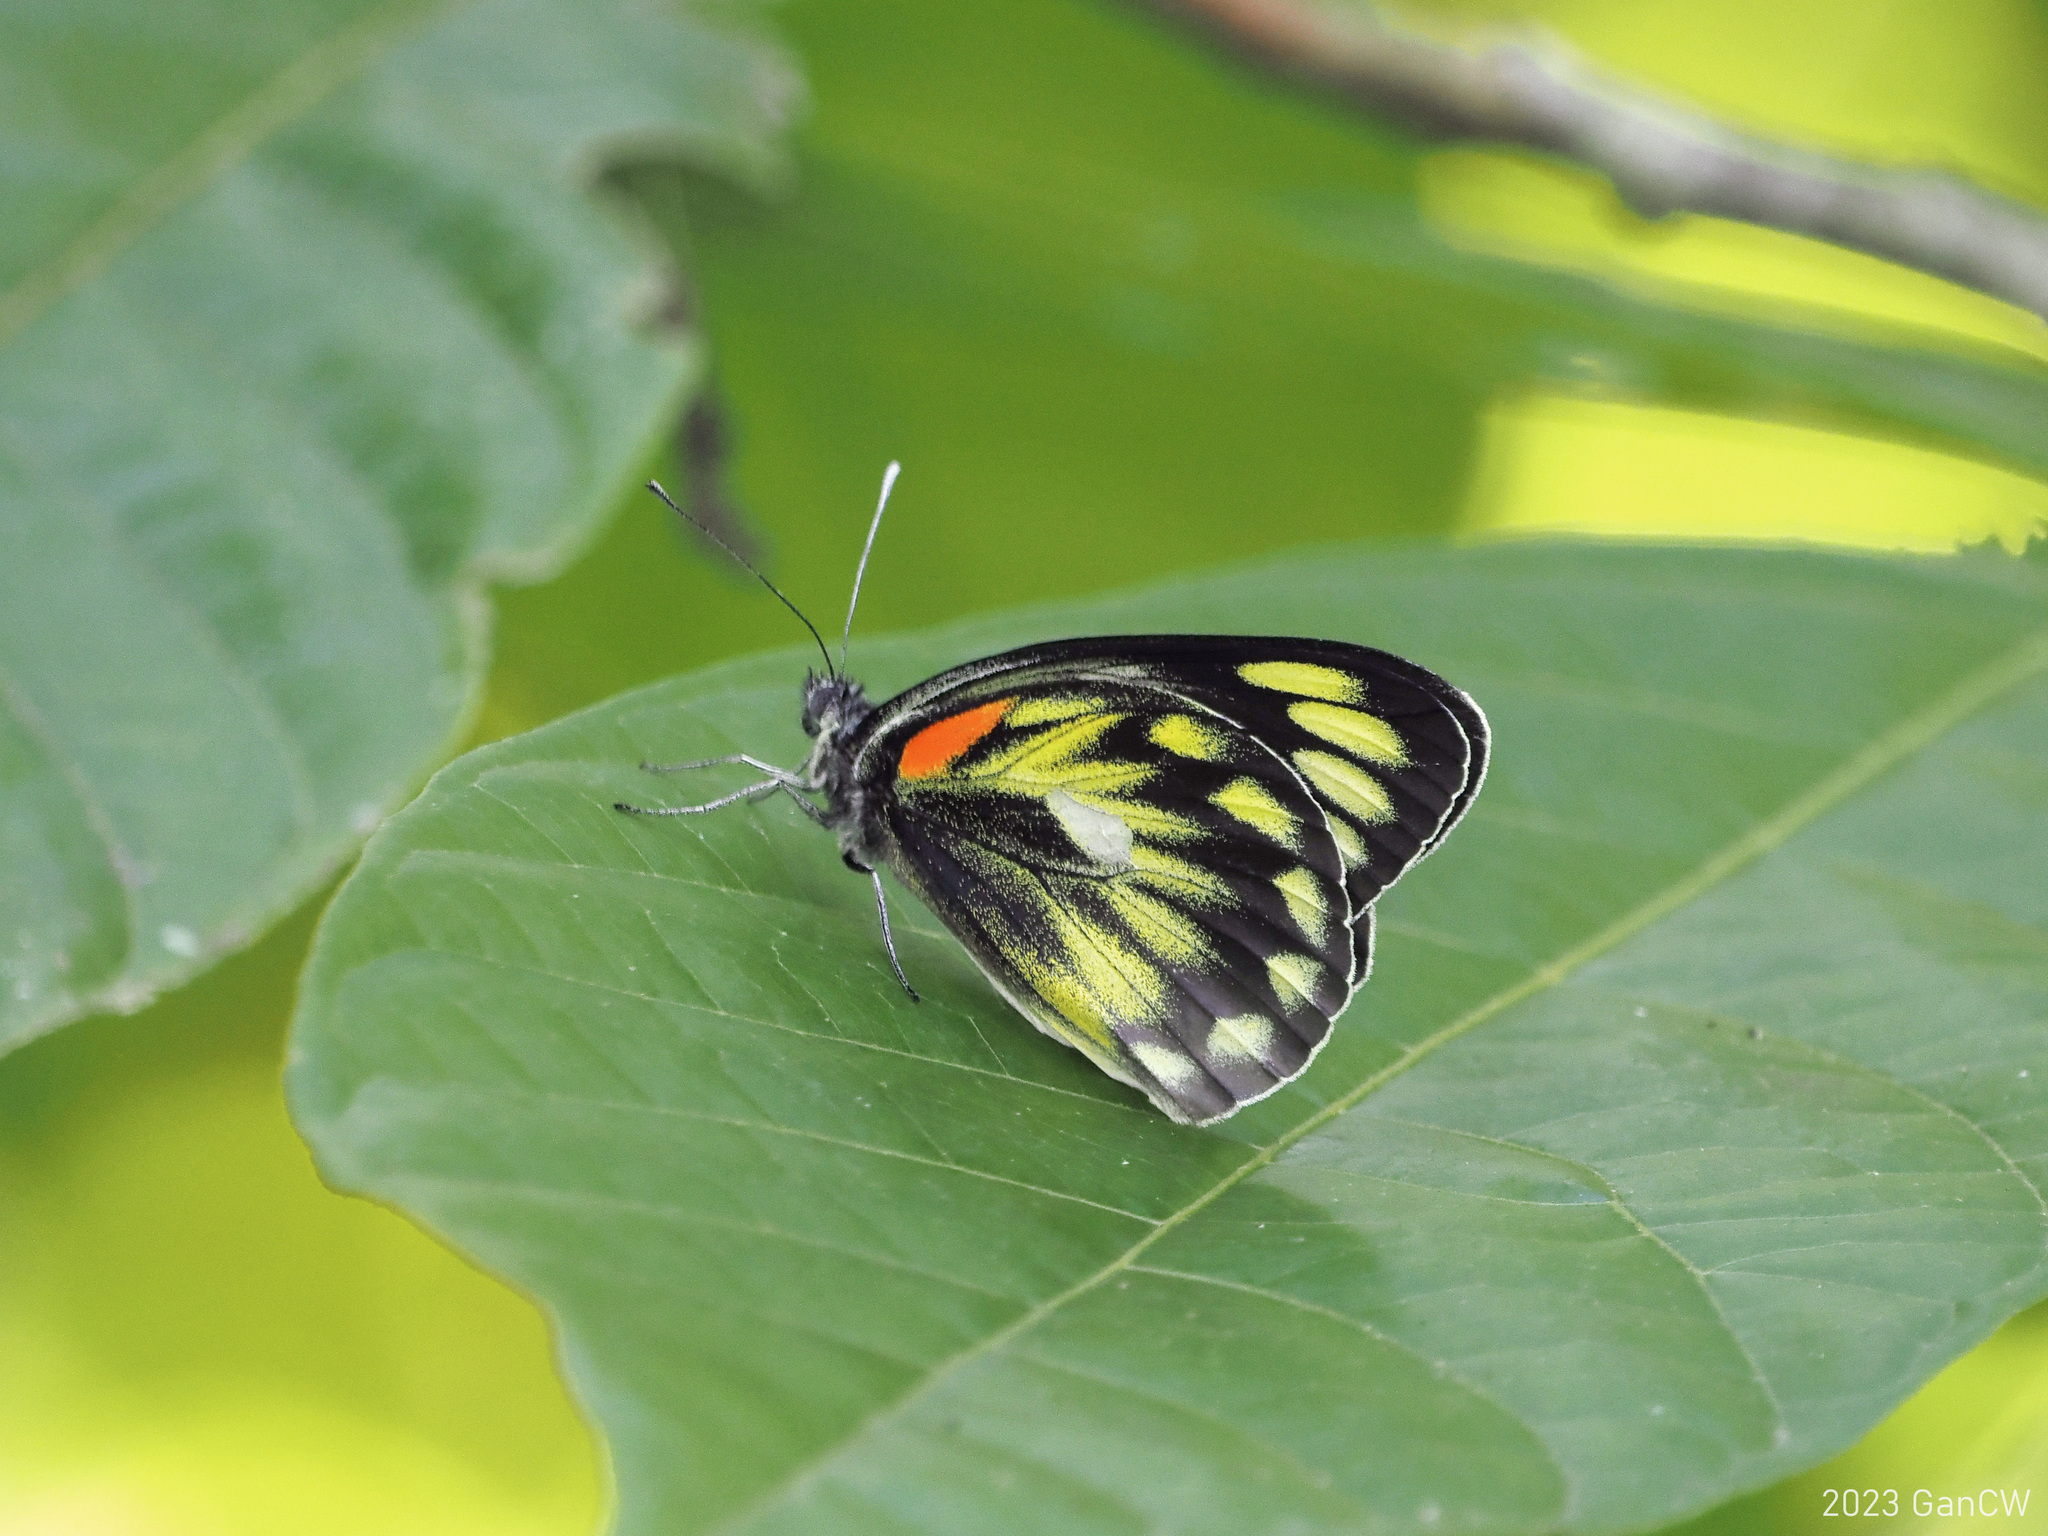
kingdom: Animalia
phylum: Arthropoda
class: Insecta
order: Lepidoptera
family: Pieridae
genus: Delias
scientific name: Delias zebuda
